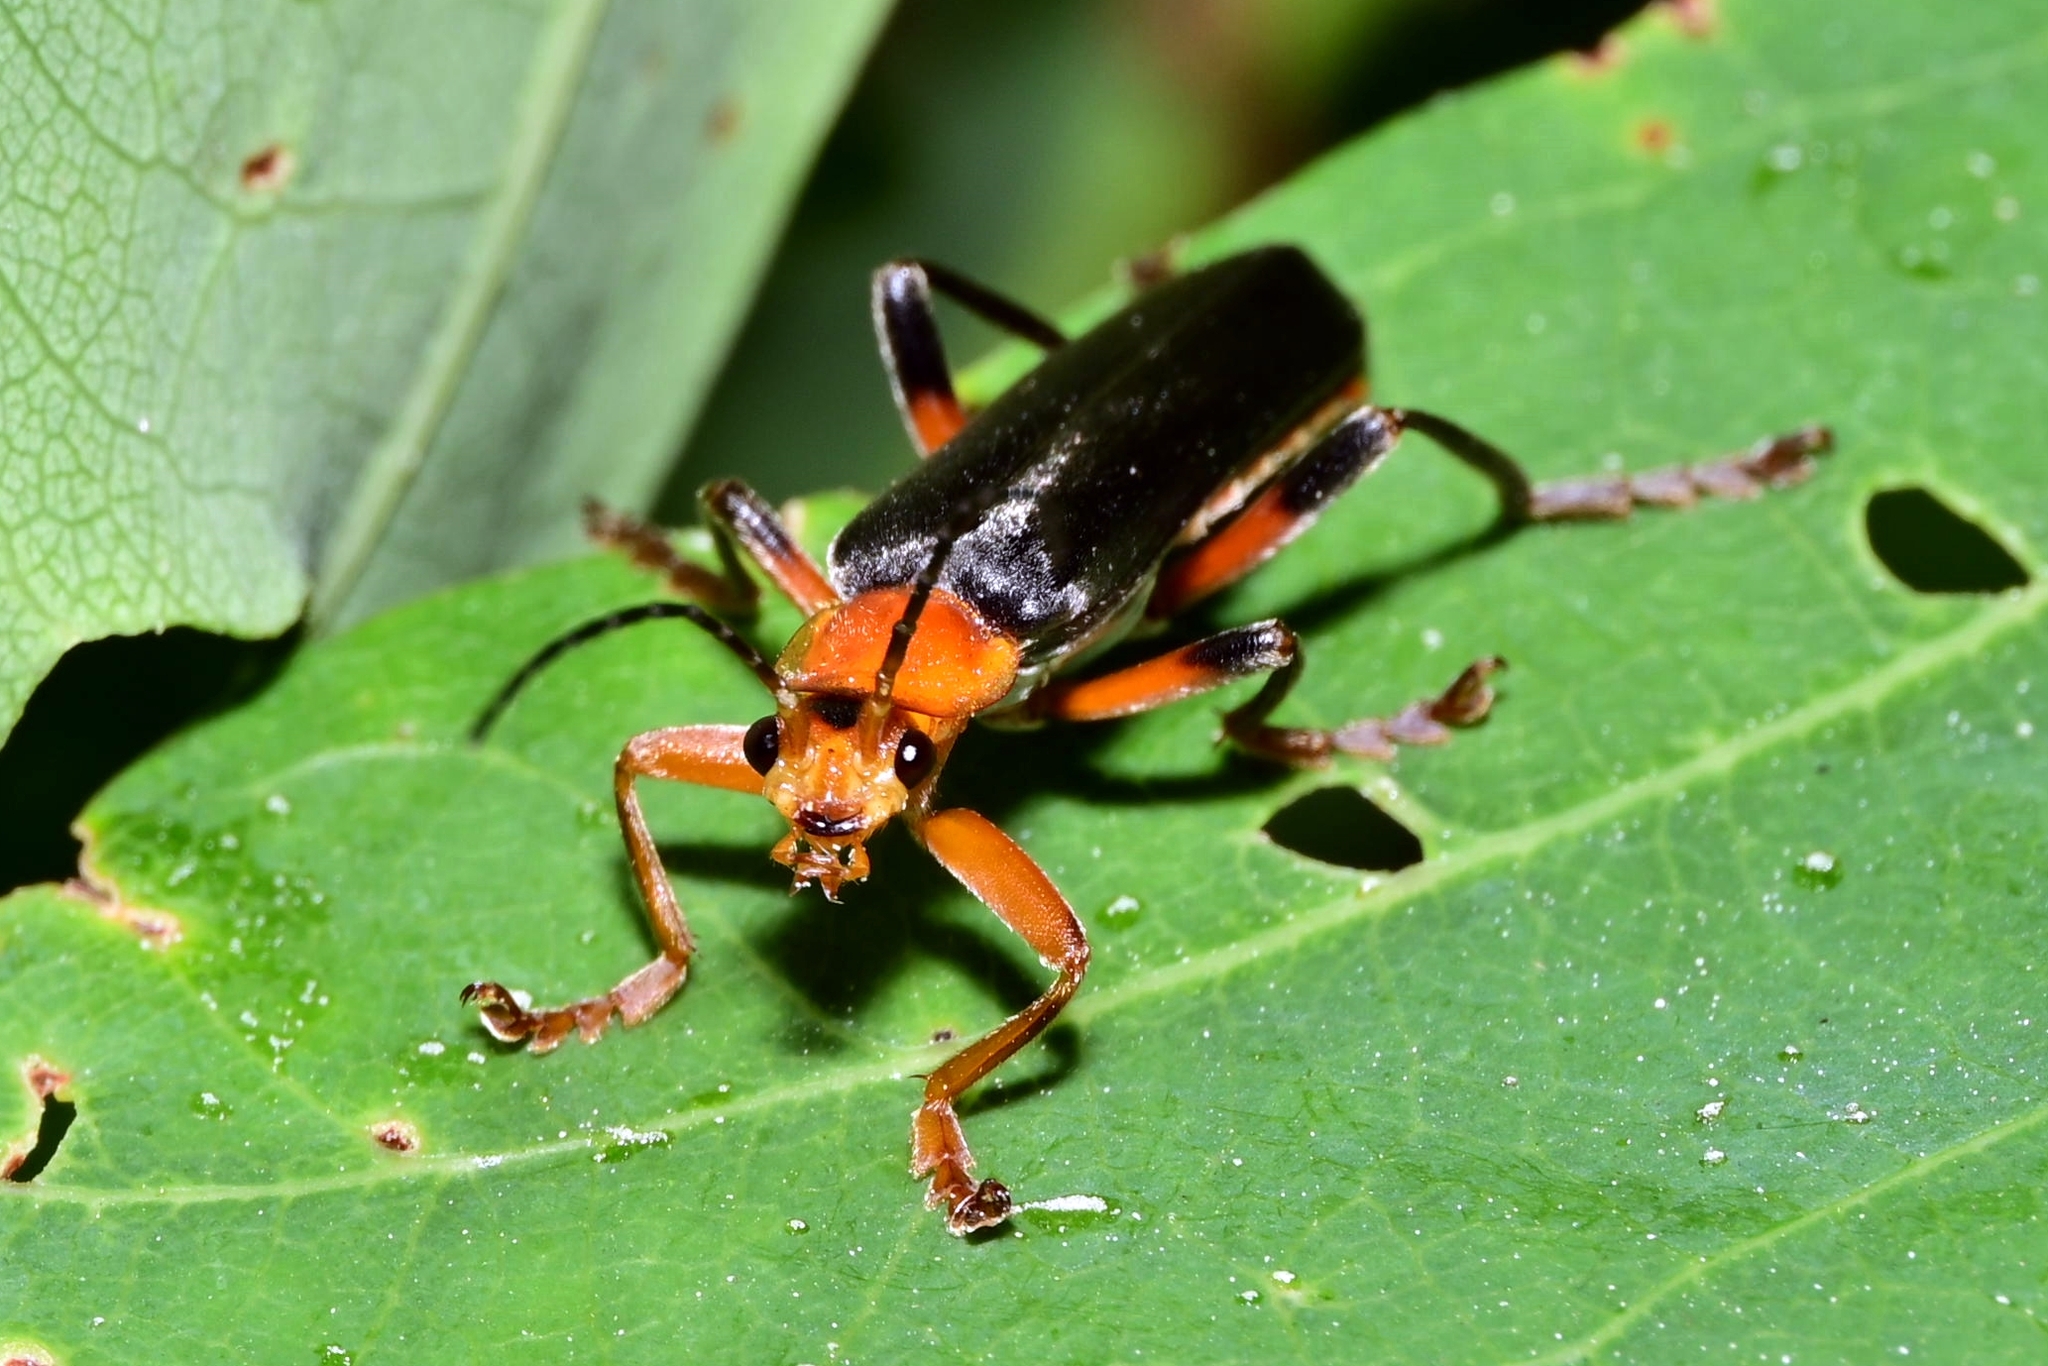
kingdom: Animalia
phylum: Arthropoda
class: Insecta
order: Coleoptera
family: Cantharidae
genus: Cantharis
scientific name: Cantharis livida
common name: Livid soldier beetle
